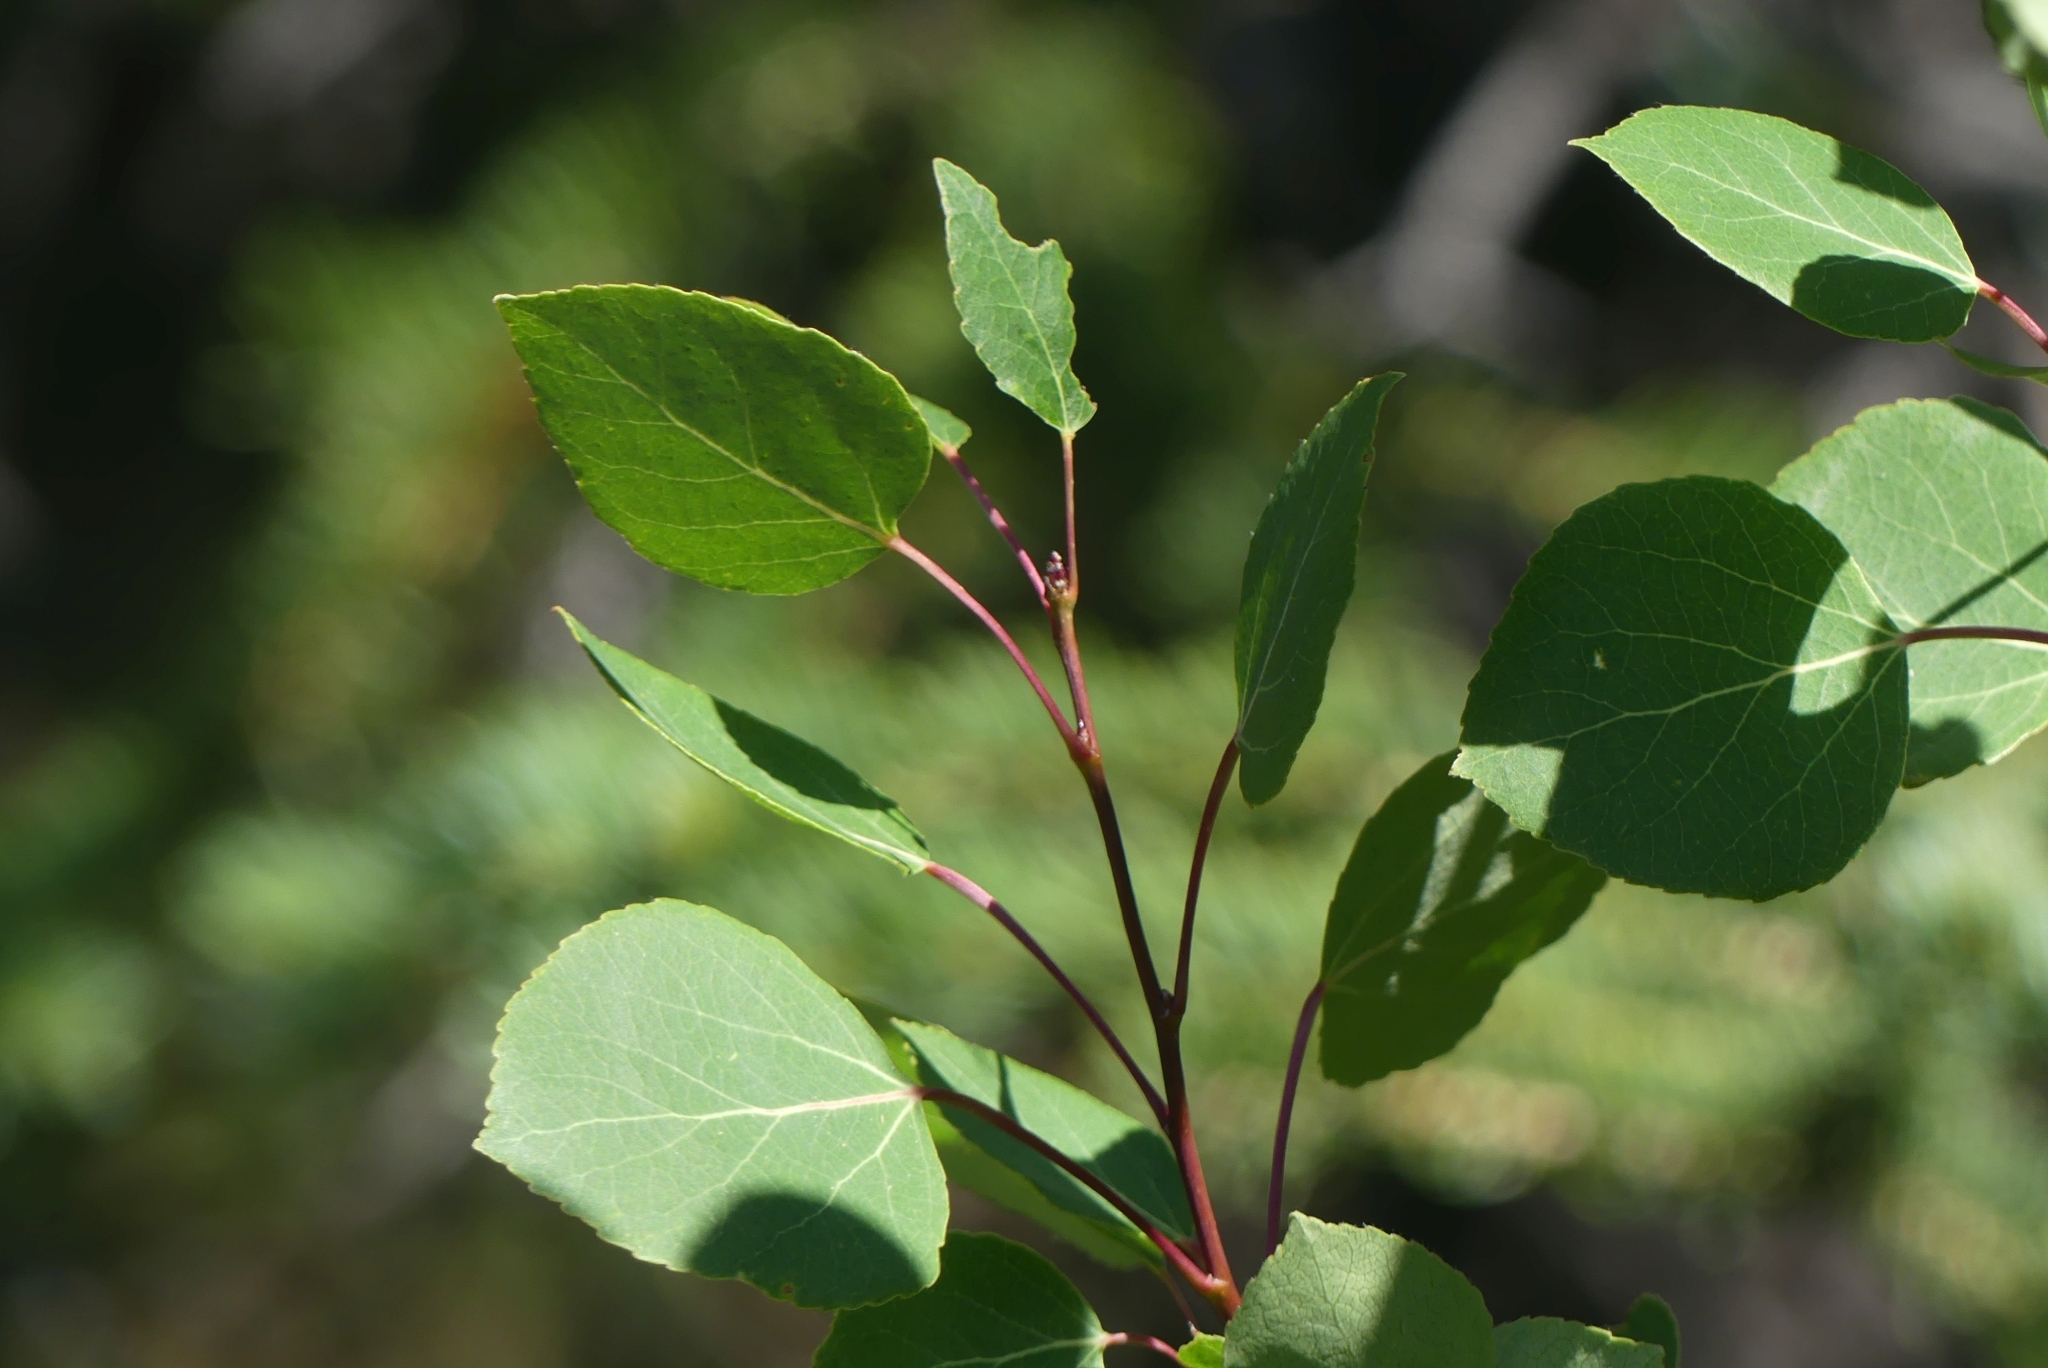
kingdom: Plantae
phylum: Tracheophyta
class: Magnoliopsida
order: Malpighiales
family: Salicaceae
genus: Populus
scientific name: Populus tremuloides
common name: Quaking aspen
